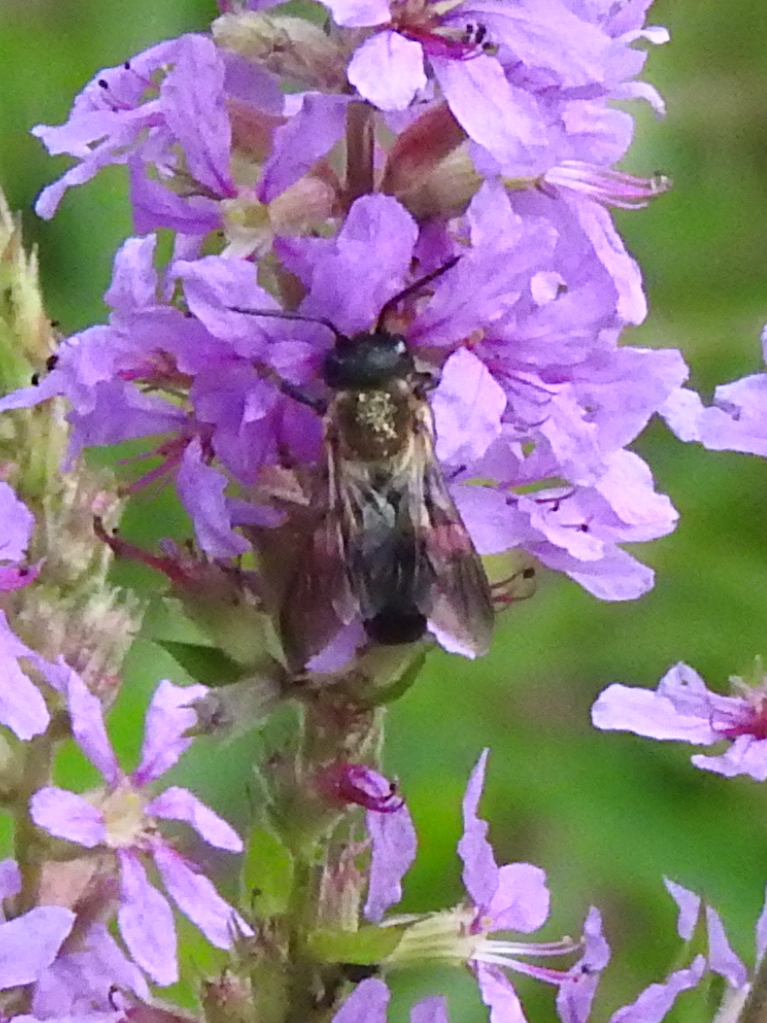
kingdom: Animalia
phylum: Arthropoda
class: Insecta
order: Hymenoptera
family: Megachilidae
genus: Megachile
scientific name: Megachile sculpturalis
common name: Sculptured resin bee
